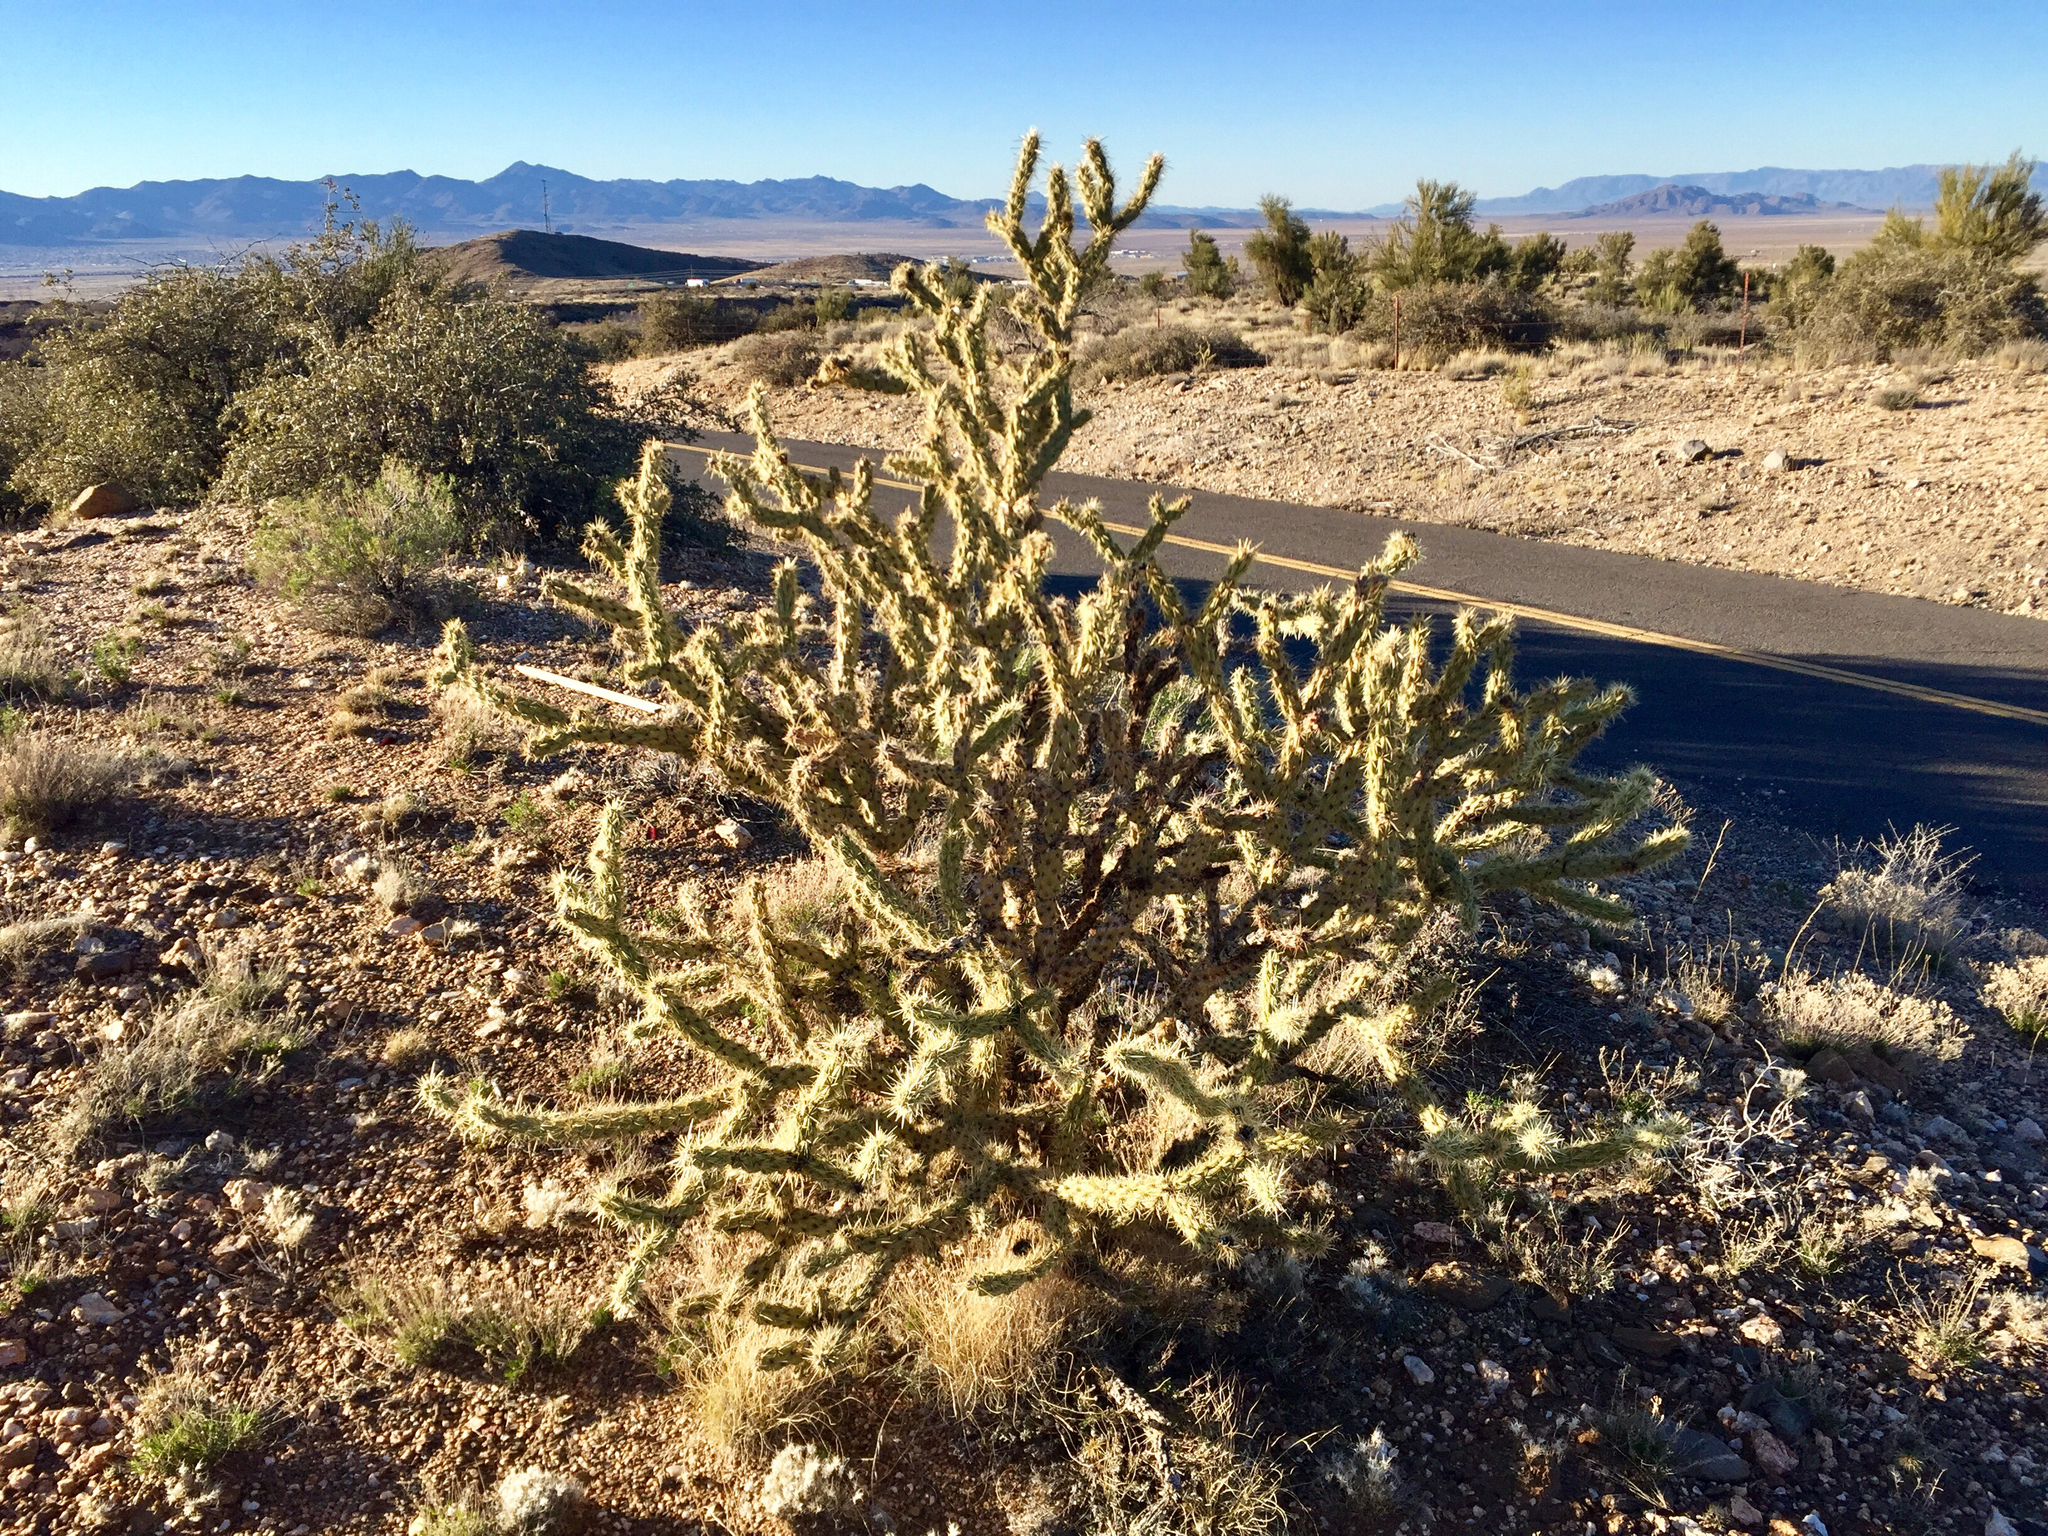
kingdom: Plantae
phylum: Tracheophyta
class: Magnoliopsida
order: Caryophyllales
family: Cactaceae
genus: Cylindropuntia
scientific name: Cylindropuntia acanthocarpa
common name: Buckhorn cholla
